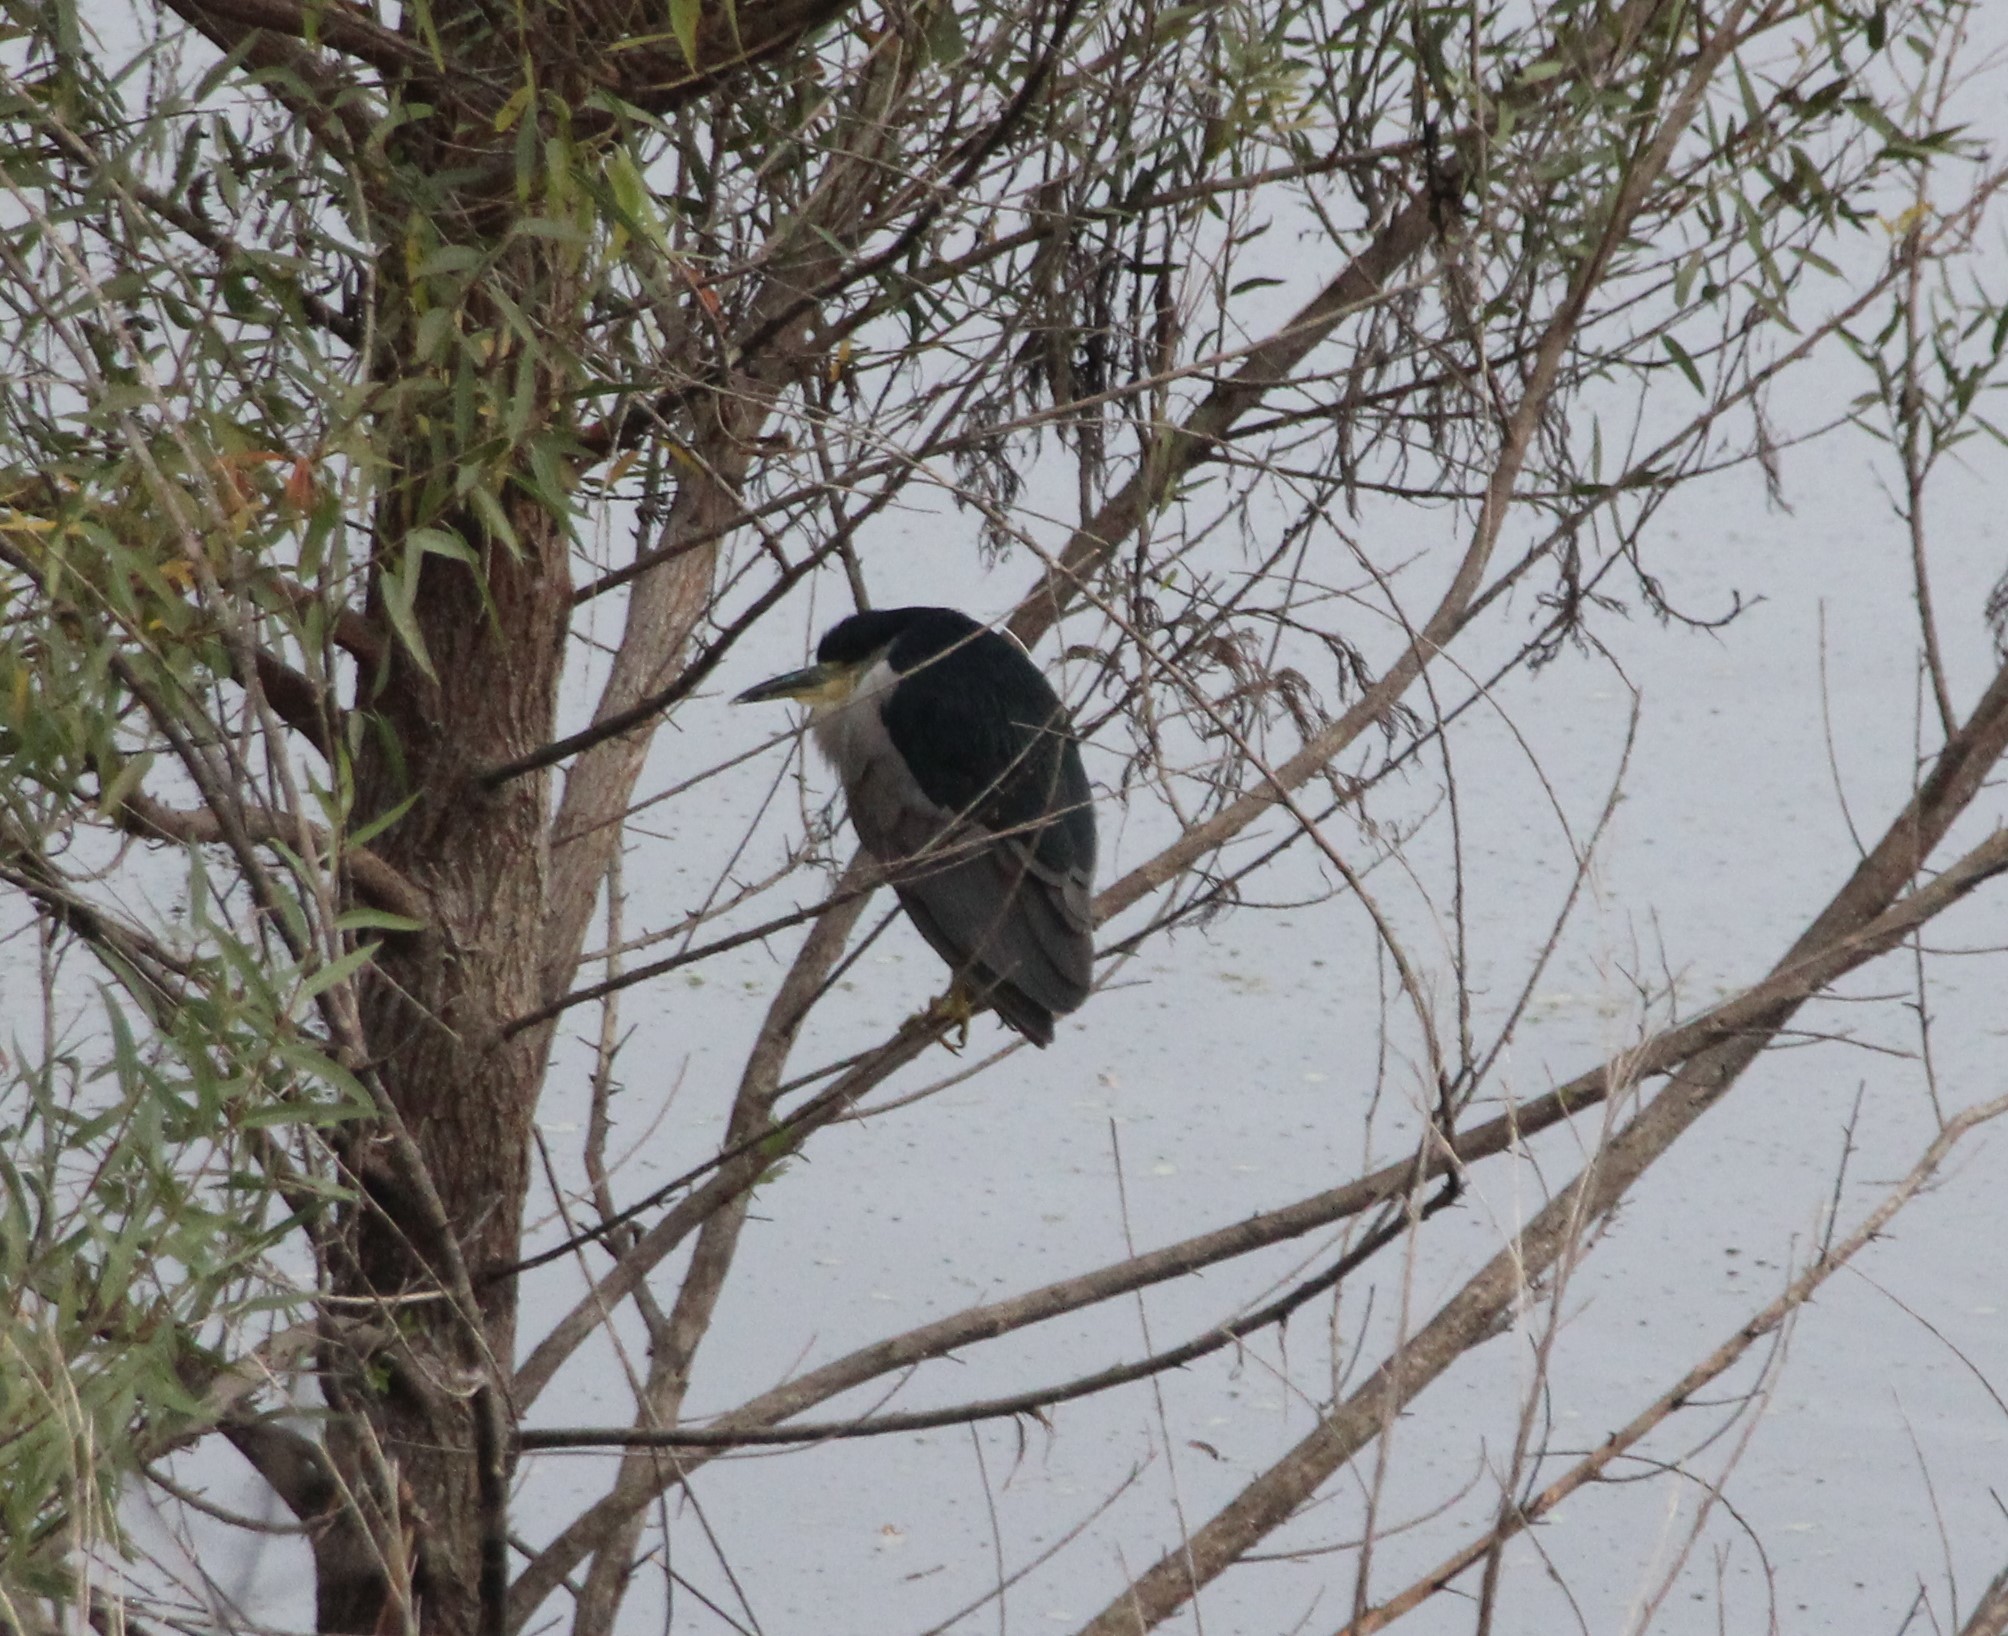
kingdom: Animalia
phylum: Chordata
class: Aves
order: Pelecaniformes
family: Ardeidae
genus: Nycticorax
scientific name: Nycticorax nycticorax
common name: Black-crowned night heron
